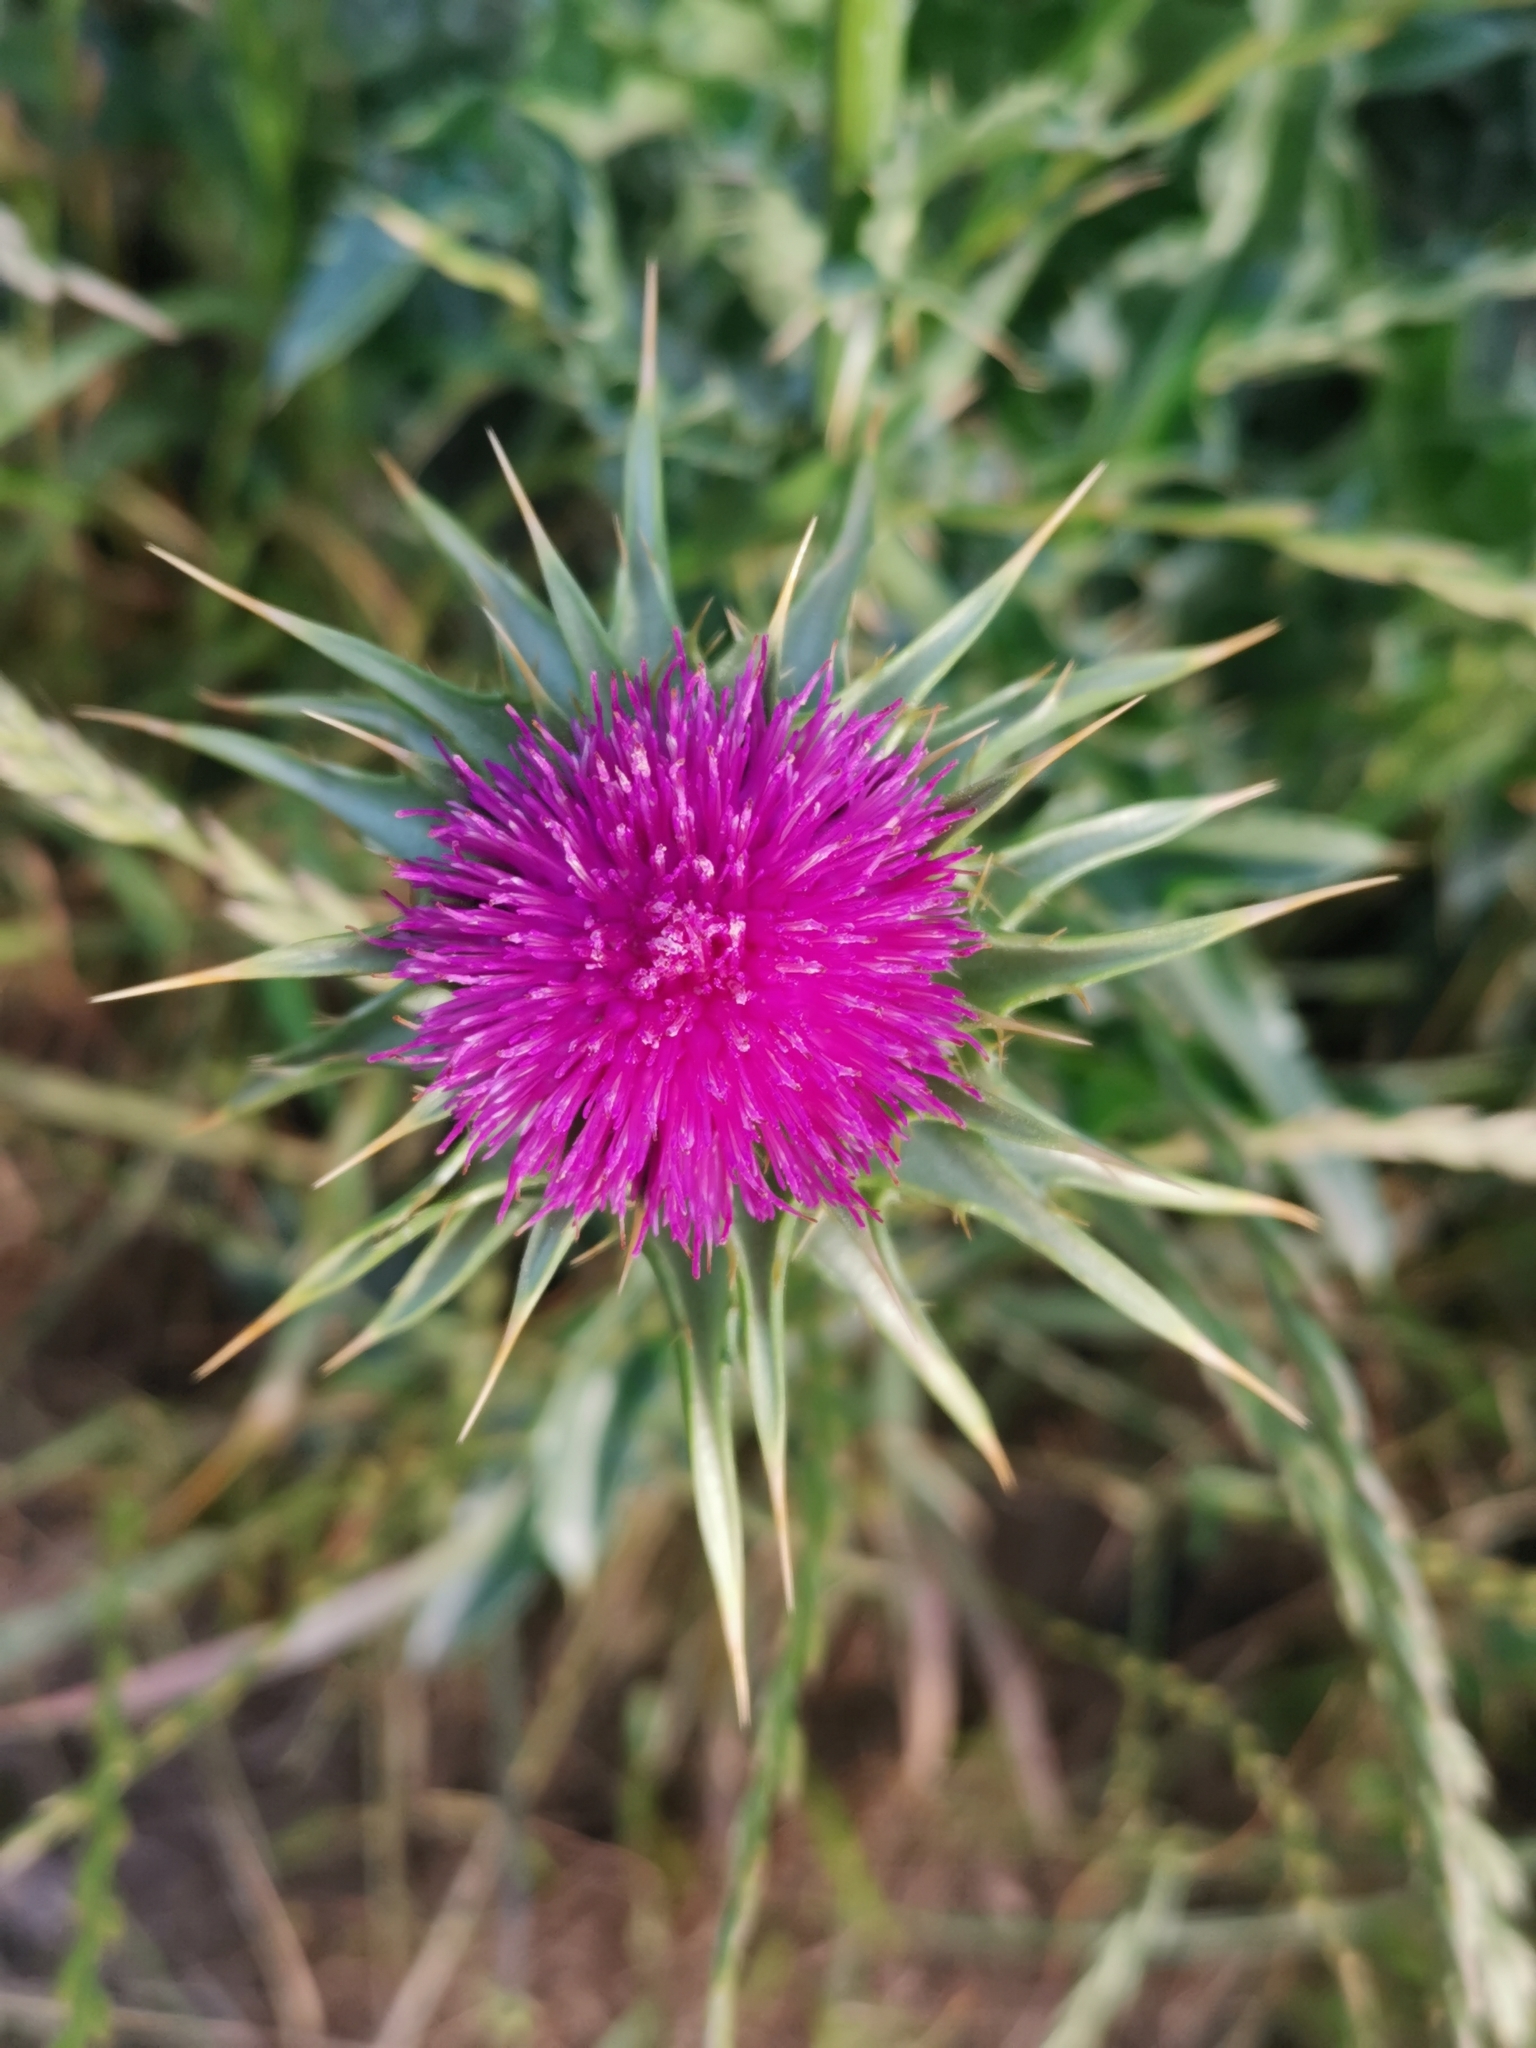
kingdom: Plantae
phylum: Tracheophyta
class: Magnoliopsida
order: Asterales
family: Asteraceae
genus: Silybum
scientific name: Silybum marianum
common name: Milk thistle
